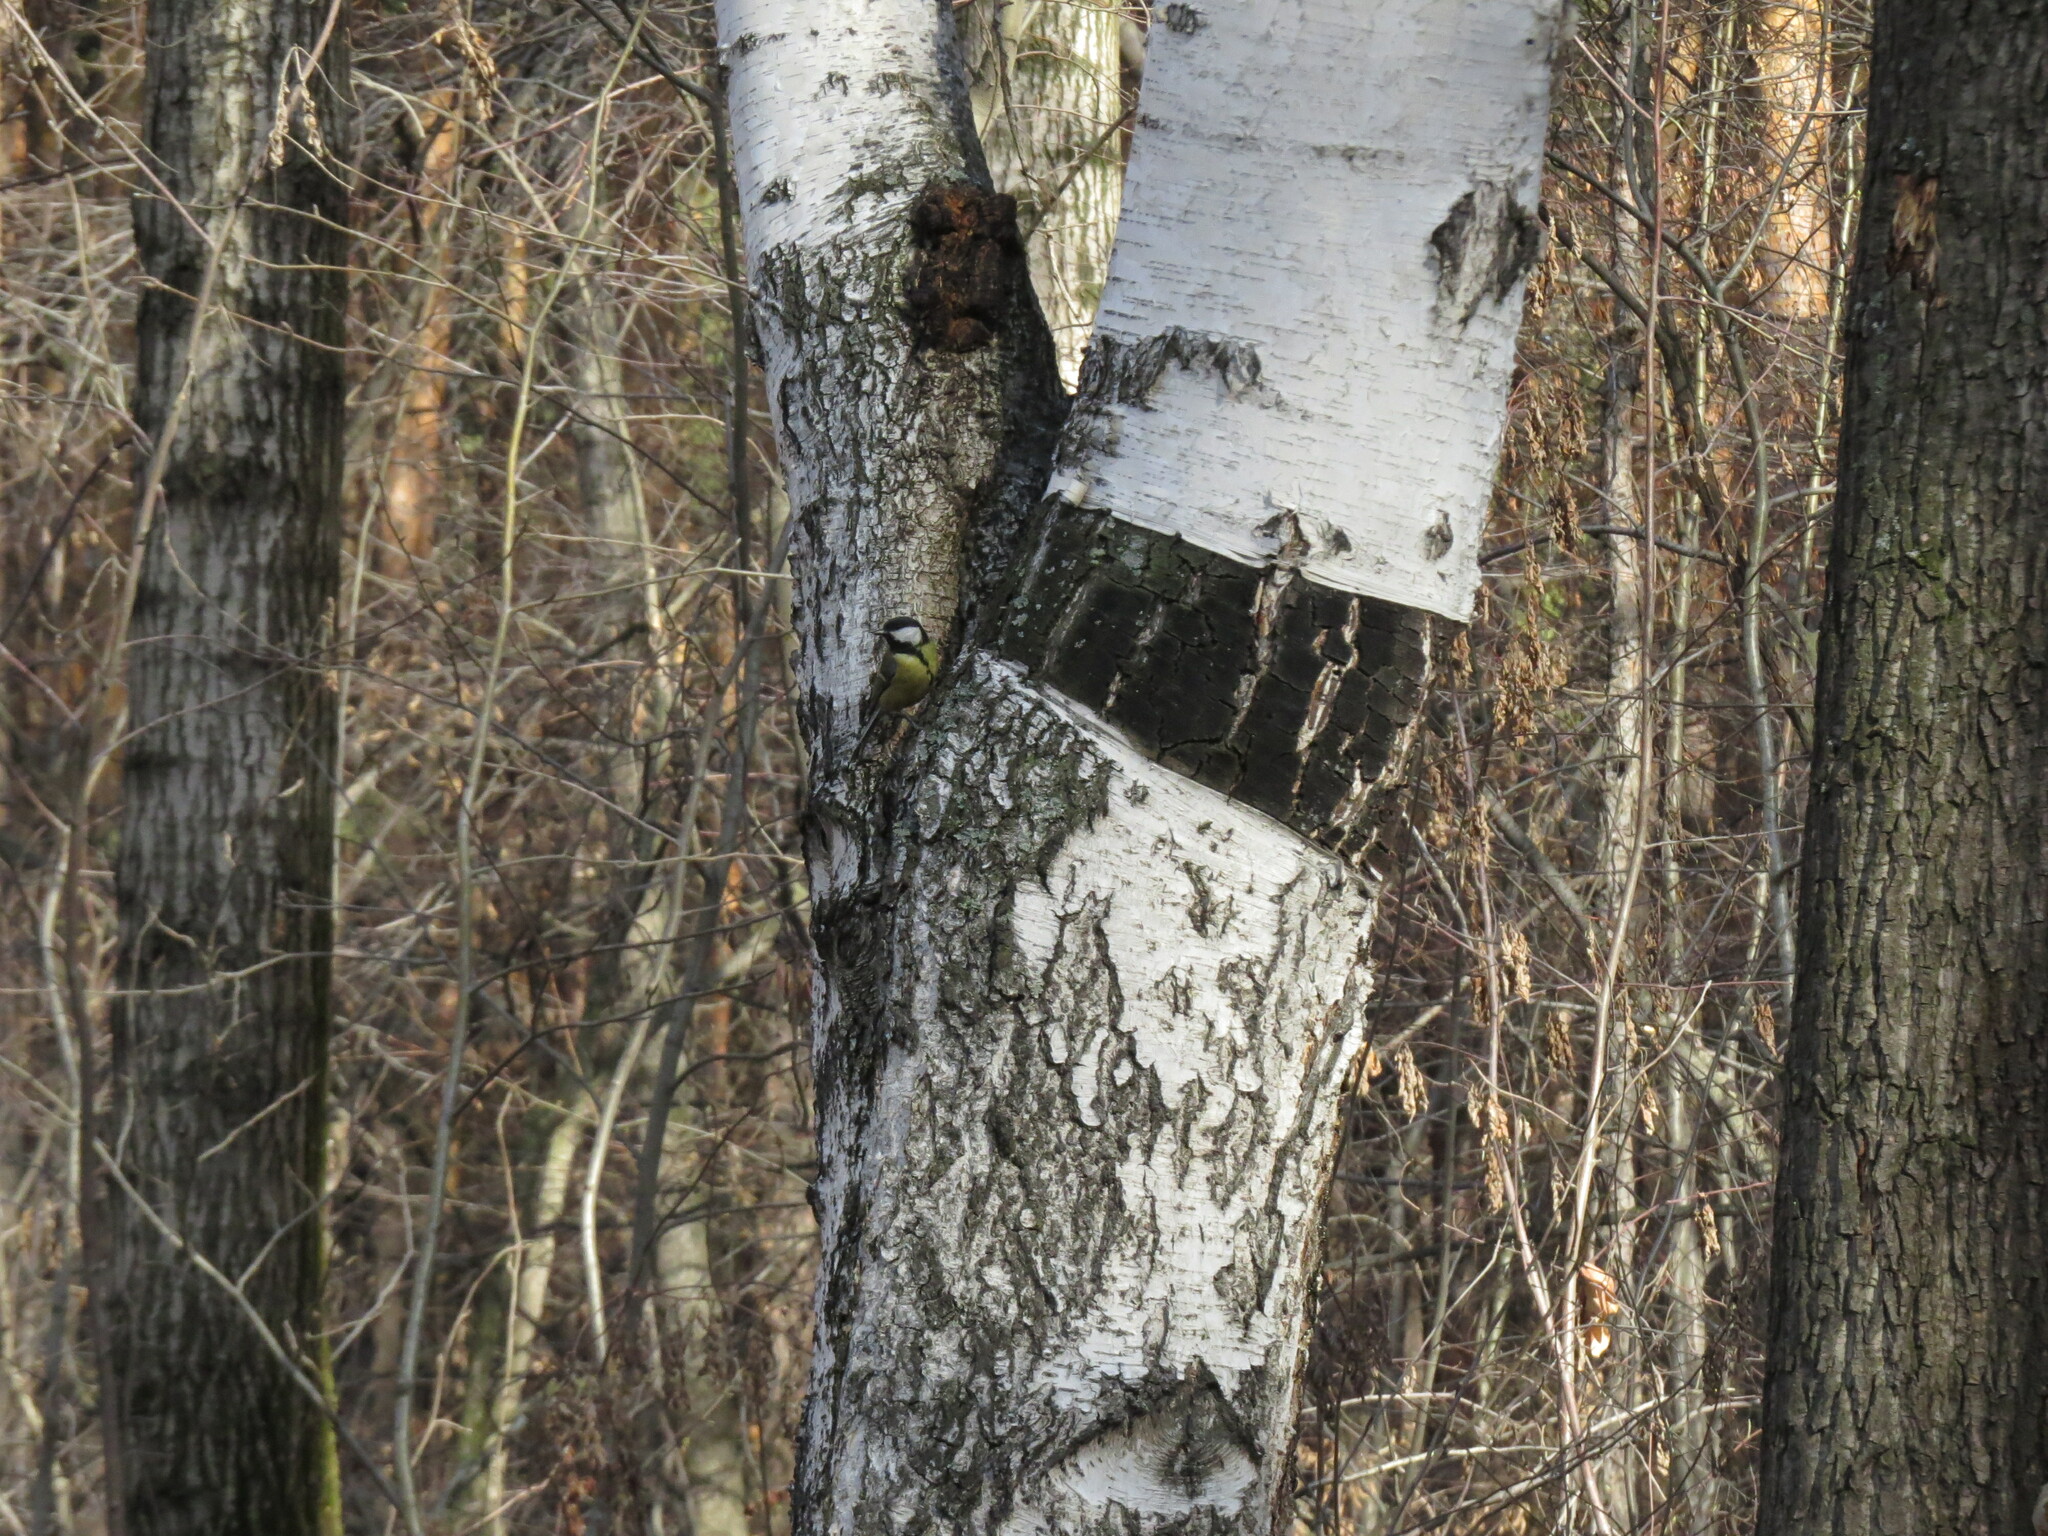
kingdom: Animalia
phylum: Chordata
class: Aves
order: Passeriformes
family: Paridae
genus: Parus
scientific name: Parus major
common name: Great tit
